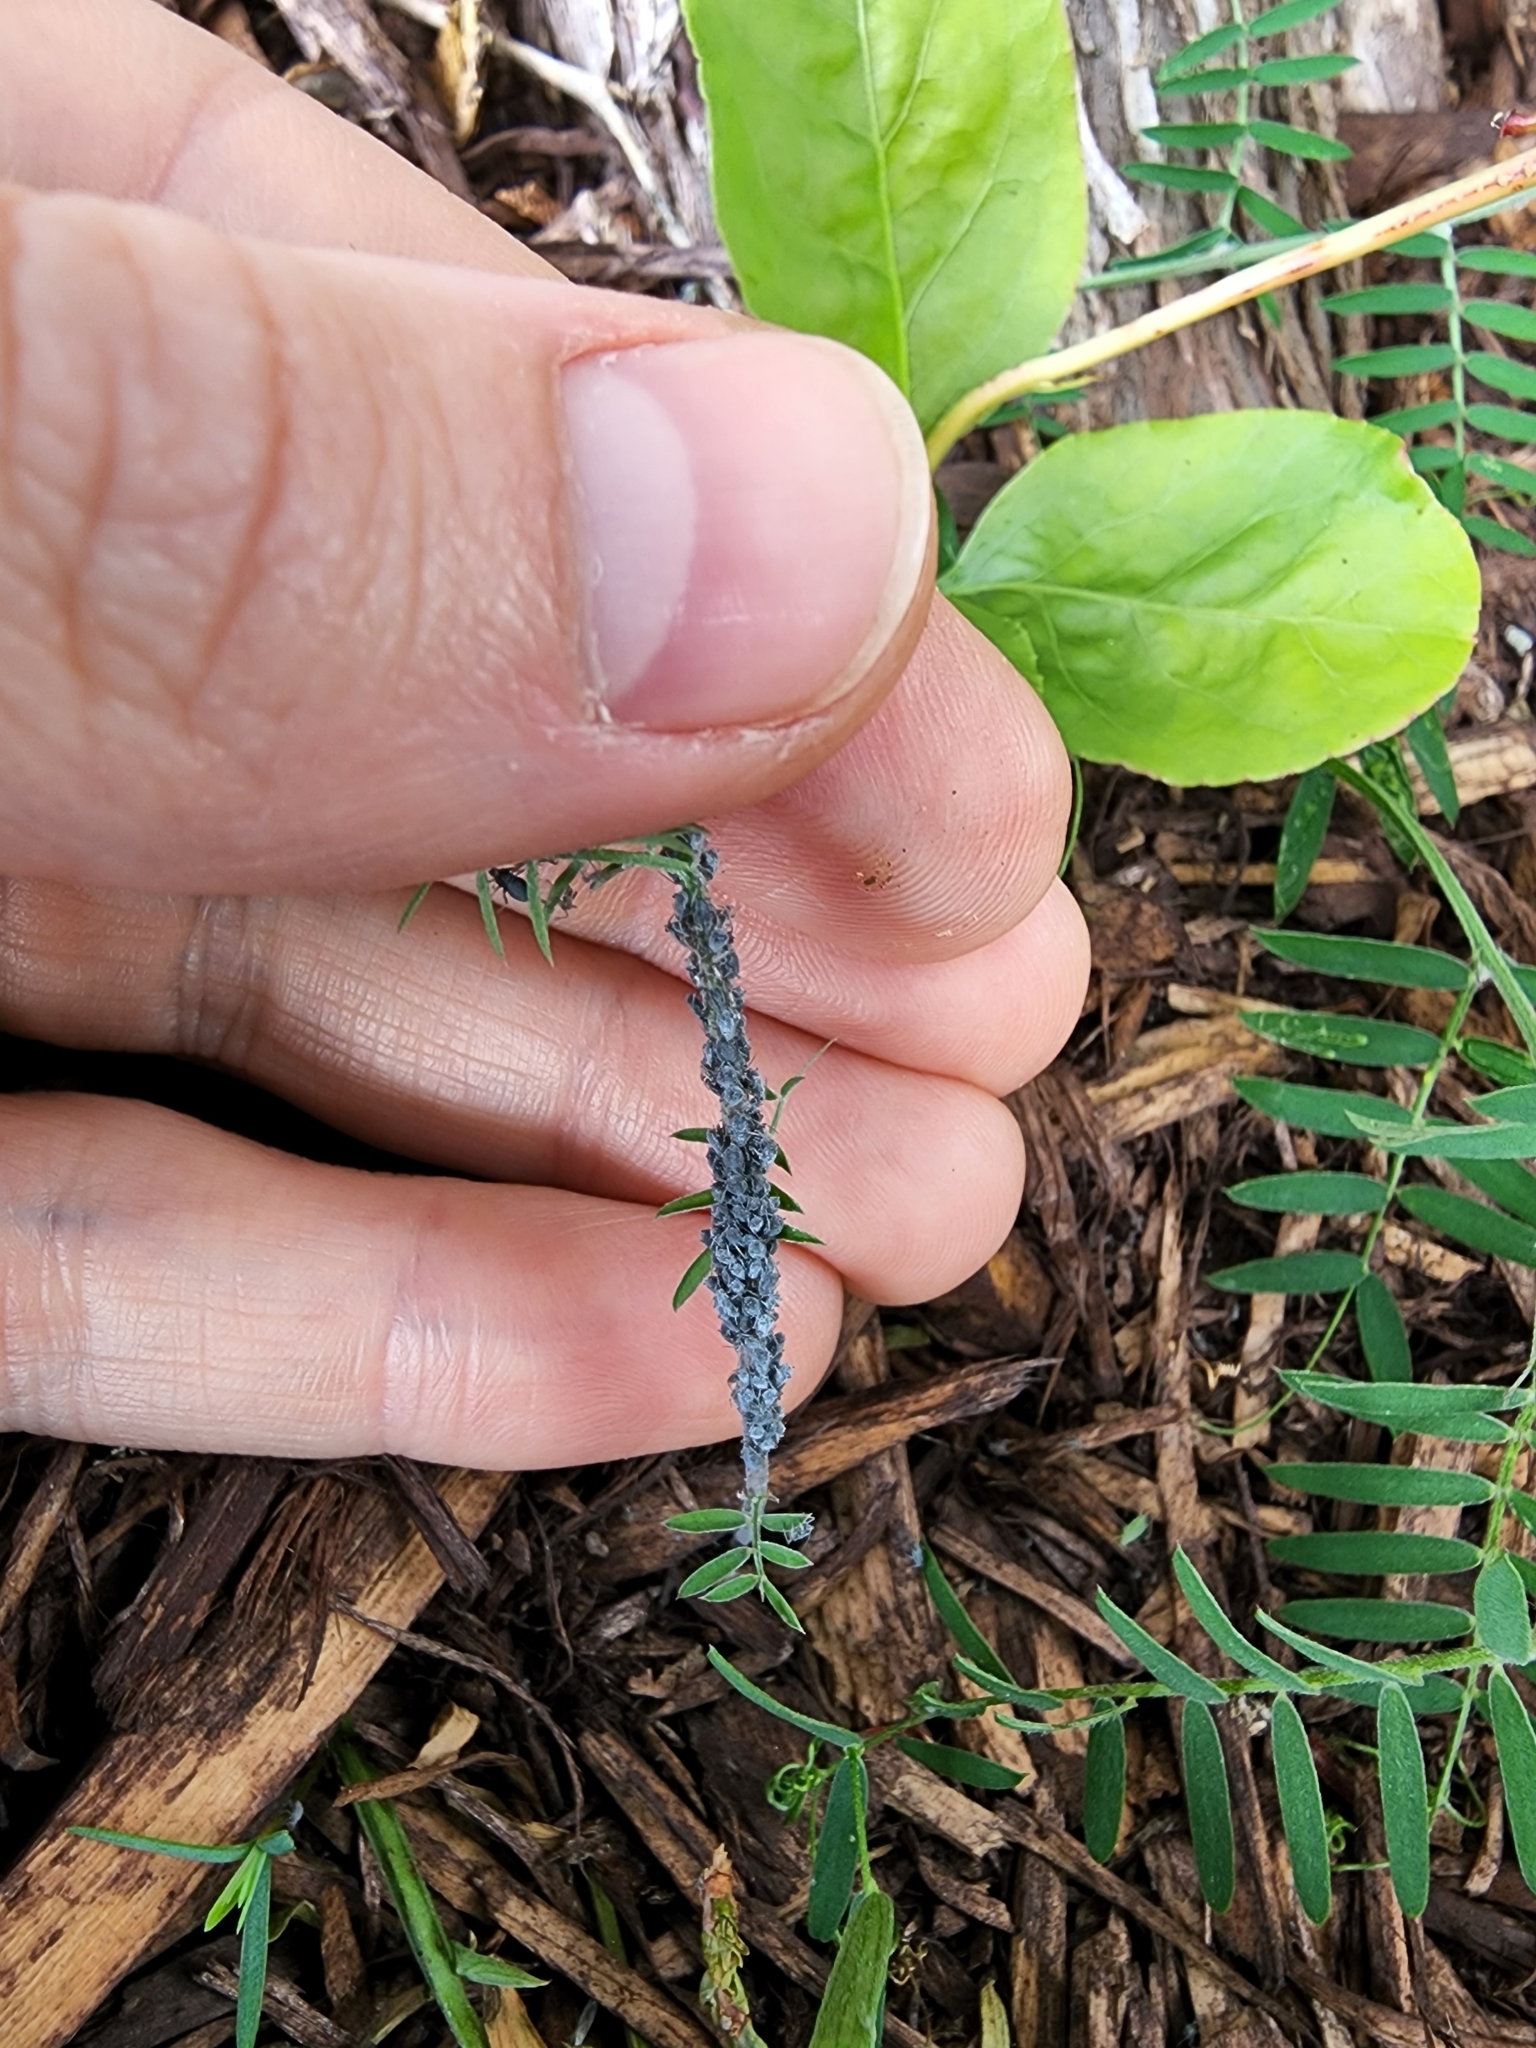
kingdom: Plantae
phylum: Tracheophyta
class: Magnoliopsida
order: Fabales
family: Fabaceae
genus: Vicia
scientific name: Vicia cracca
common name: Bird vetch
